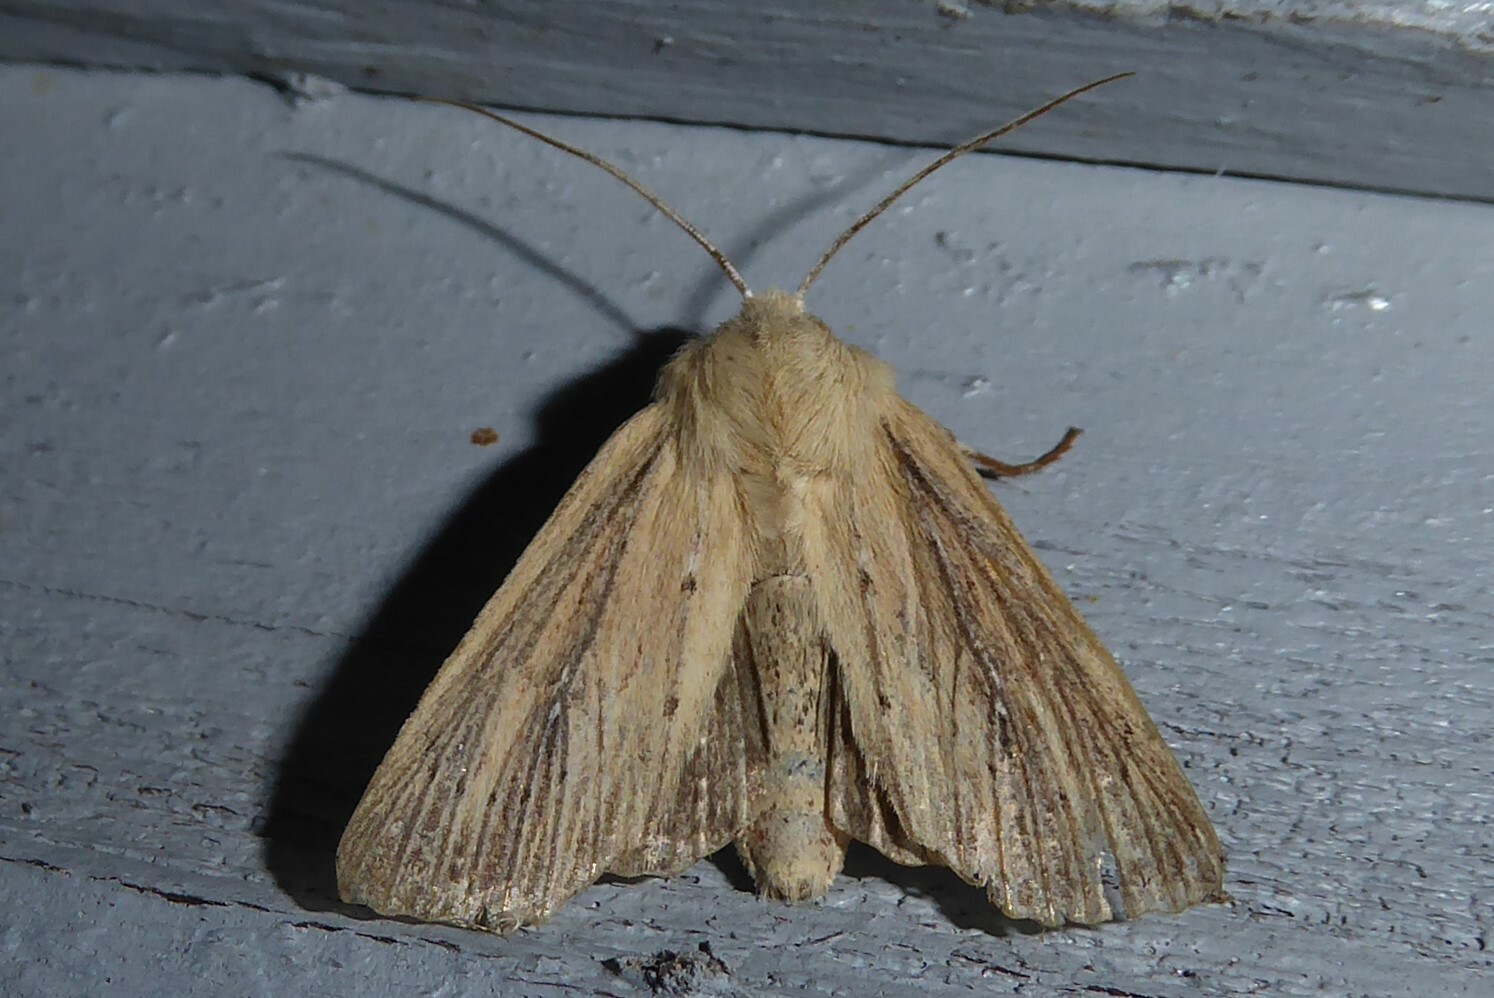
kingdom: Animalia
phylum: Arthropoda
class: Insecta
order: Lepidoptera
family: Noctuidae
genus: Ichneutica
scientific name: Ichneutica arotis
